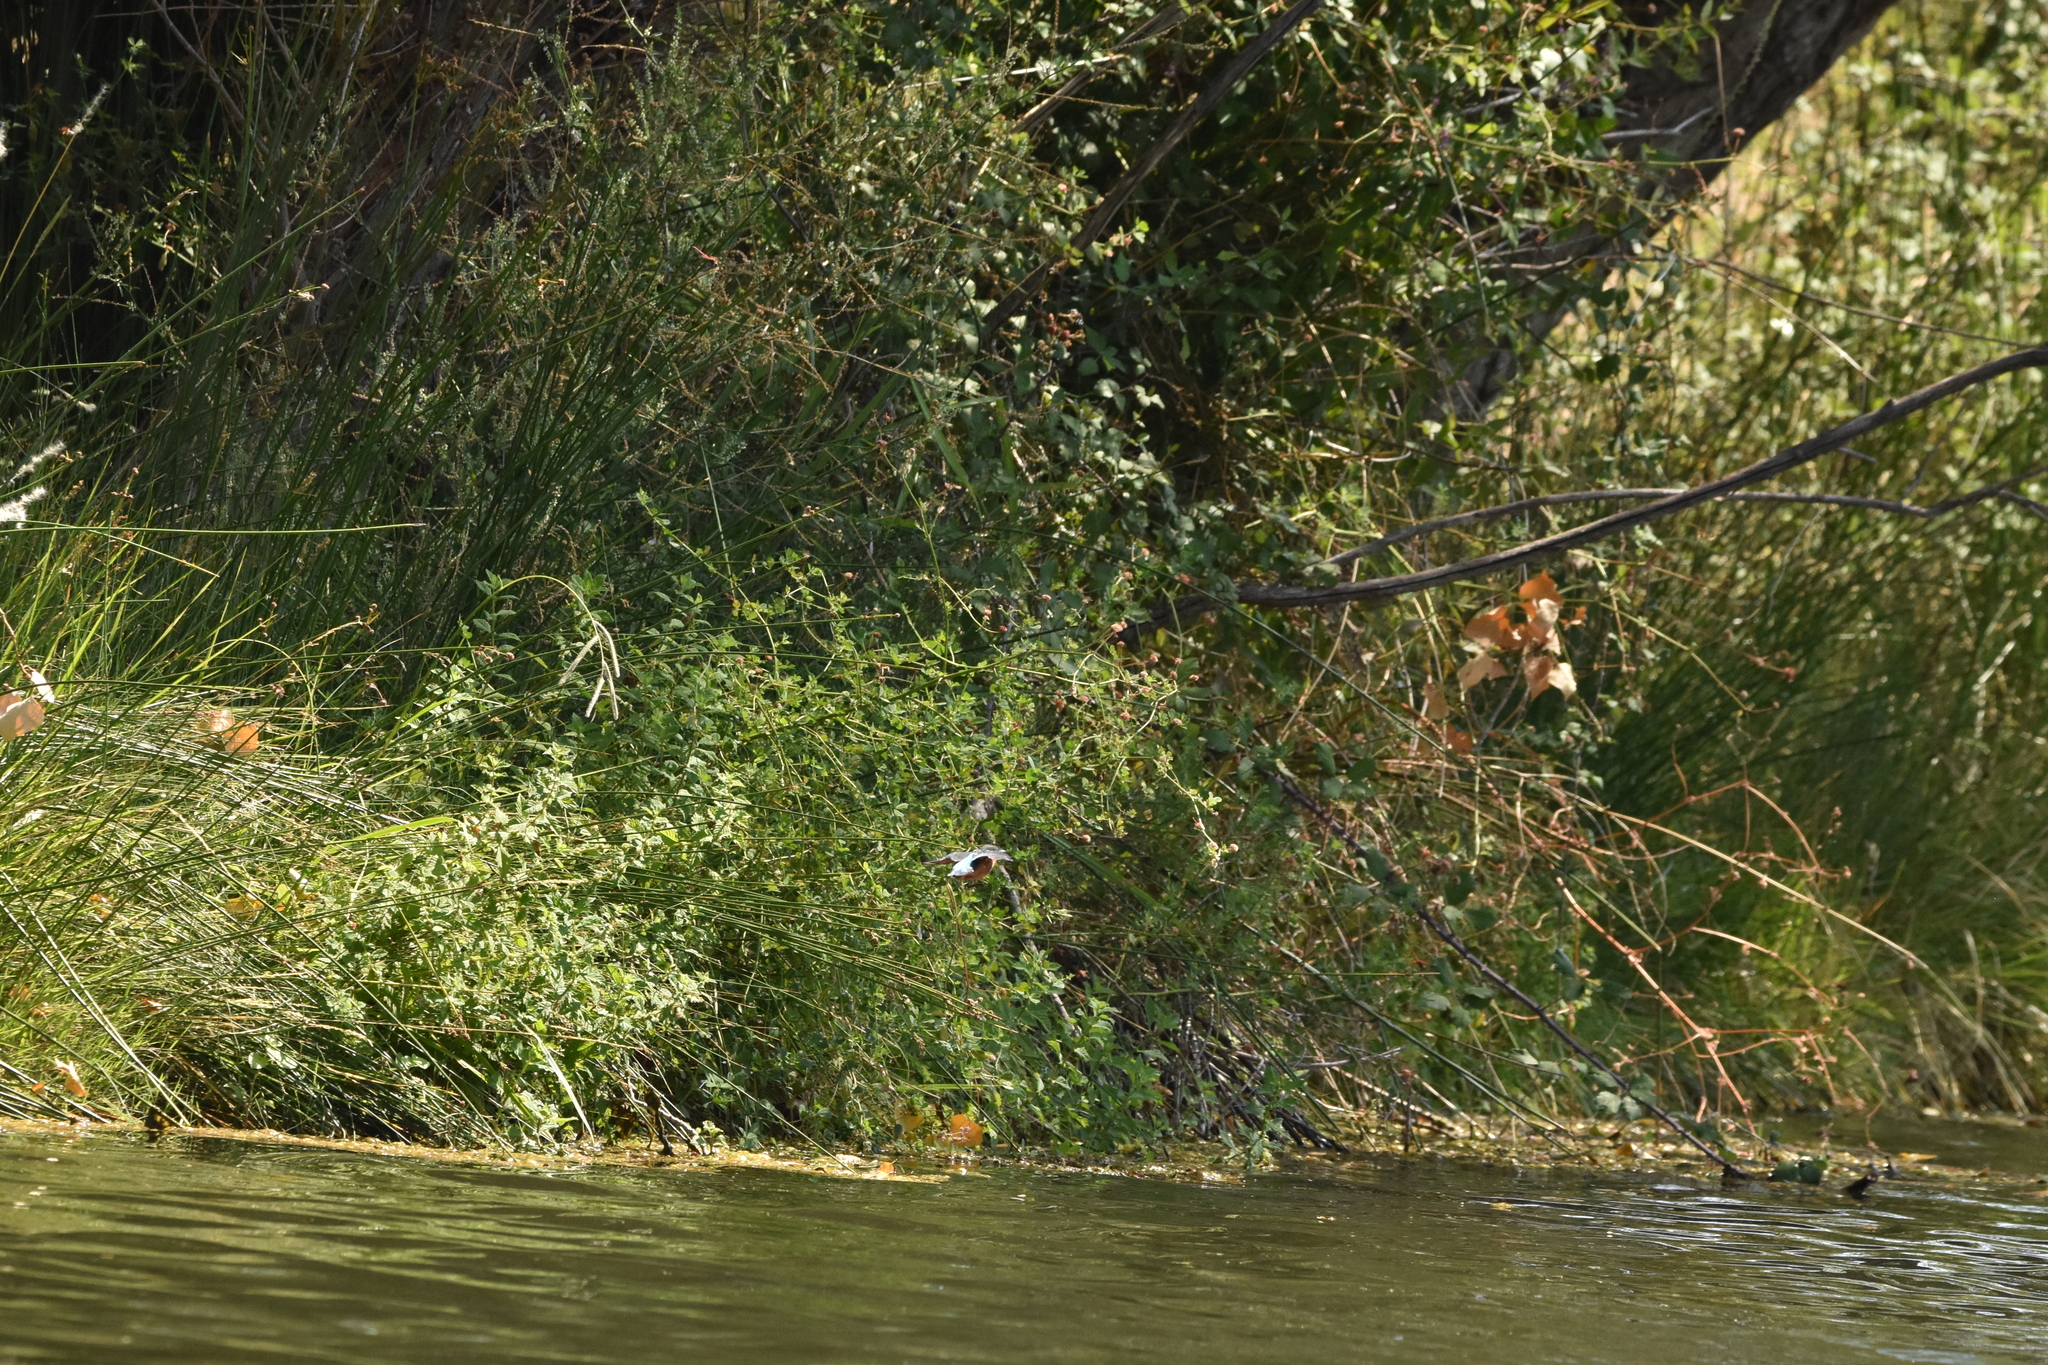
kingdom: Animalia
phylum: Chordata
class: Aves
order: Coraciiformes
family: Alcedinidae
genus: Alcedo
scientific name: Alcedo atthis
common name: Common kingfisher
